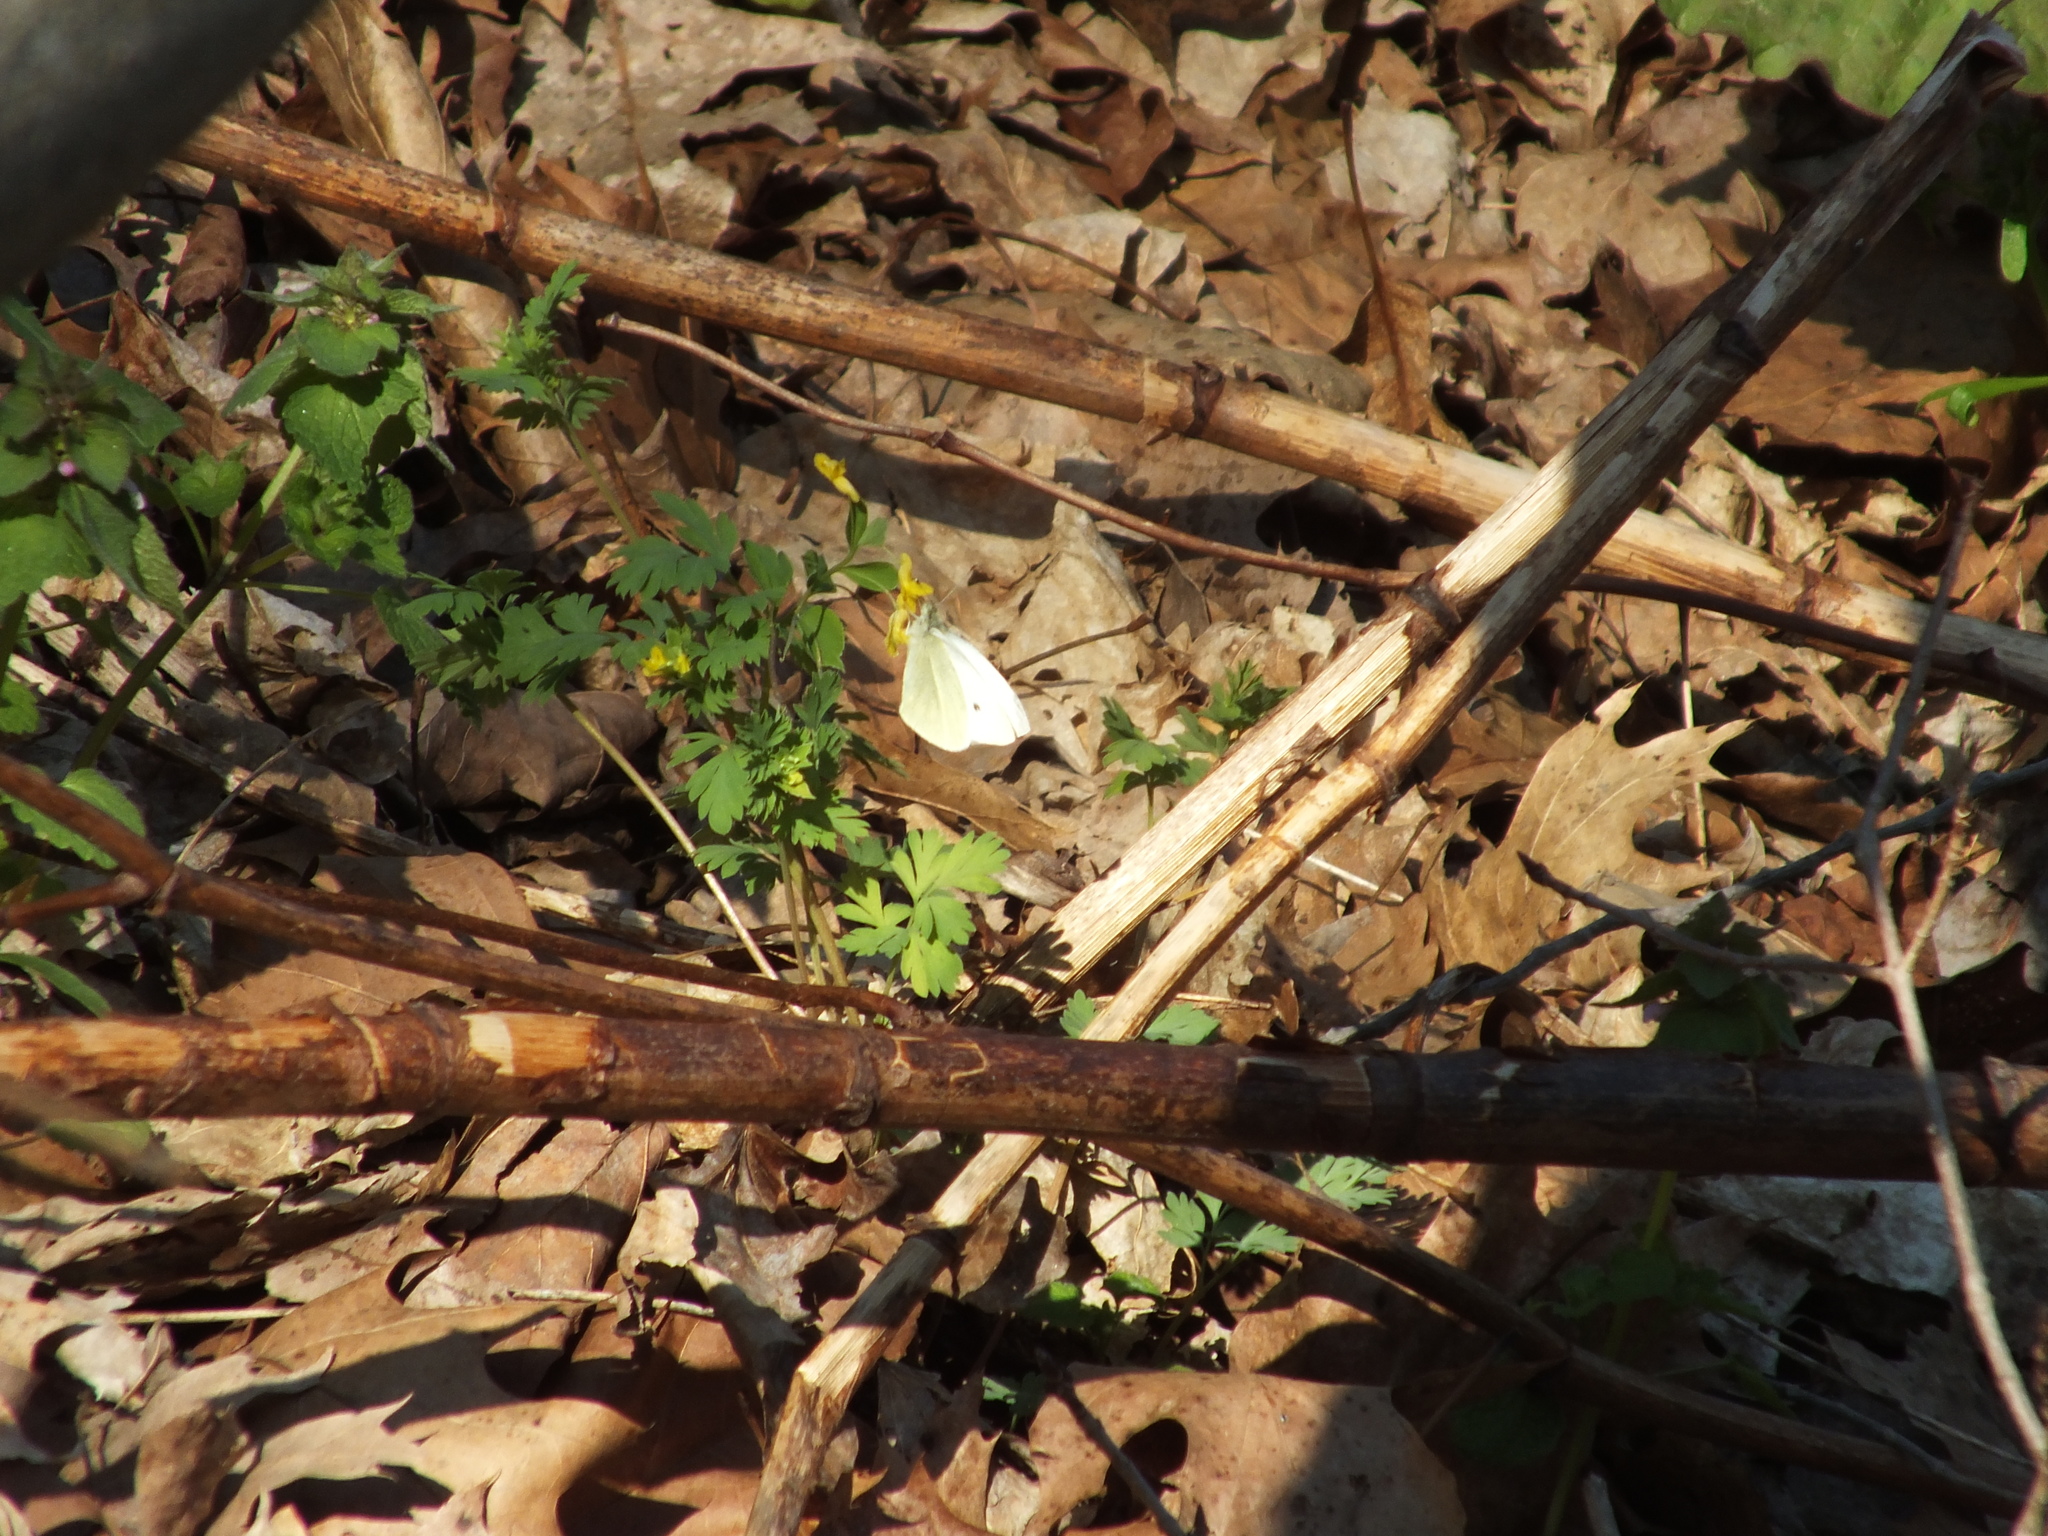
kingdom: Animalia
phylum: Arthropoda
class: Insecta
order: Lepidoptera
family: Pieridae
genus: Pieris
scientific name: Pieris rapae
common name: Small white
